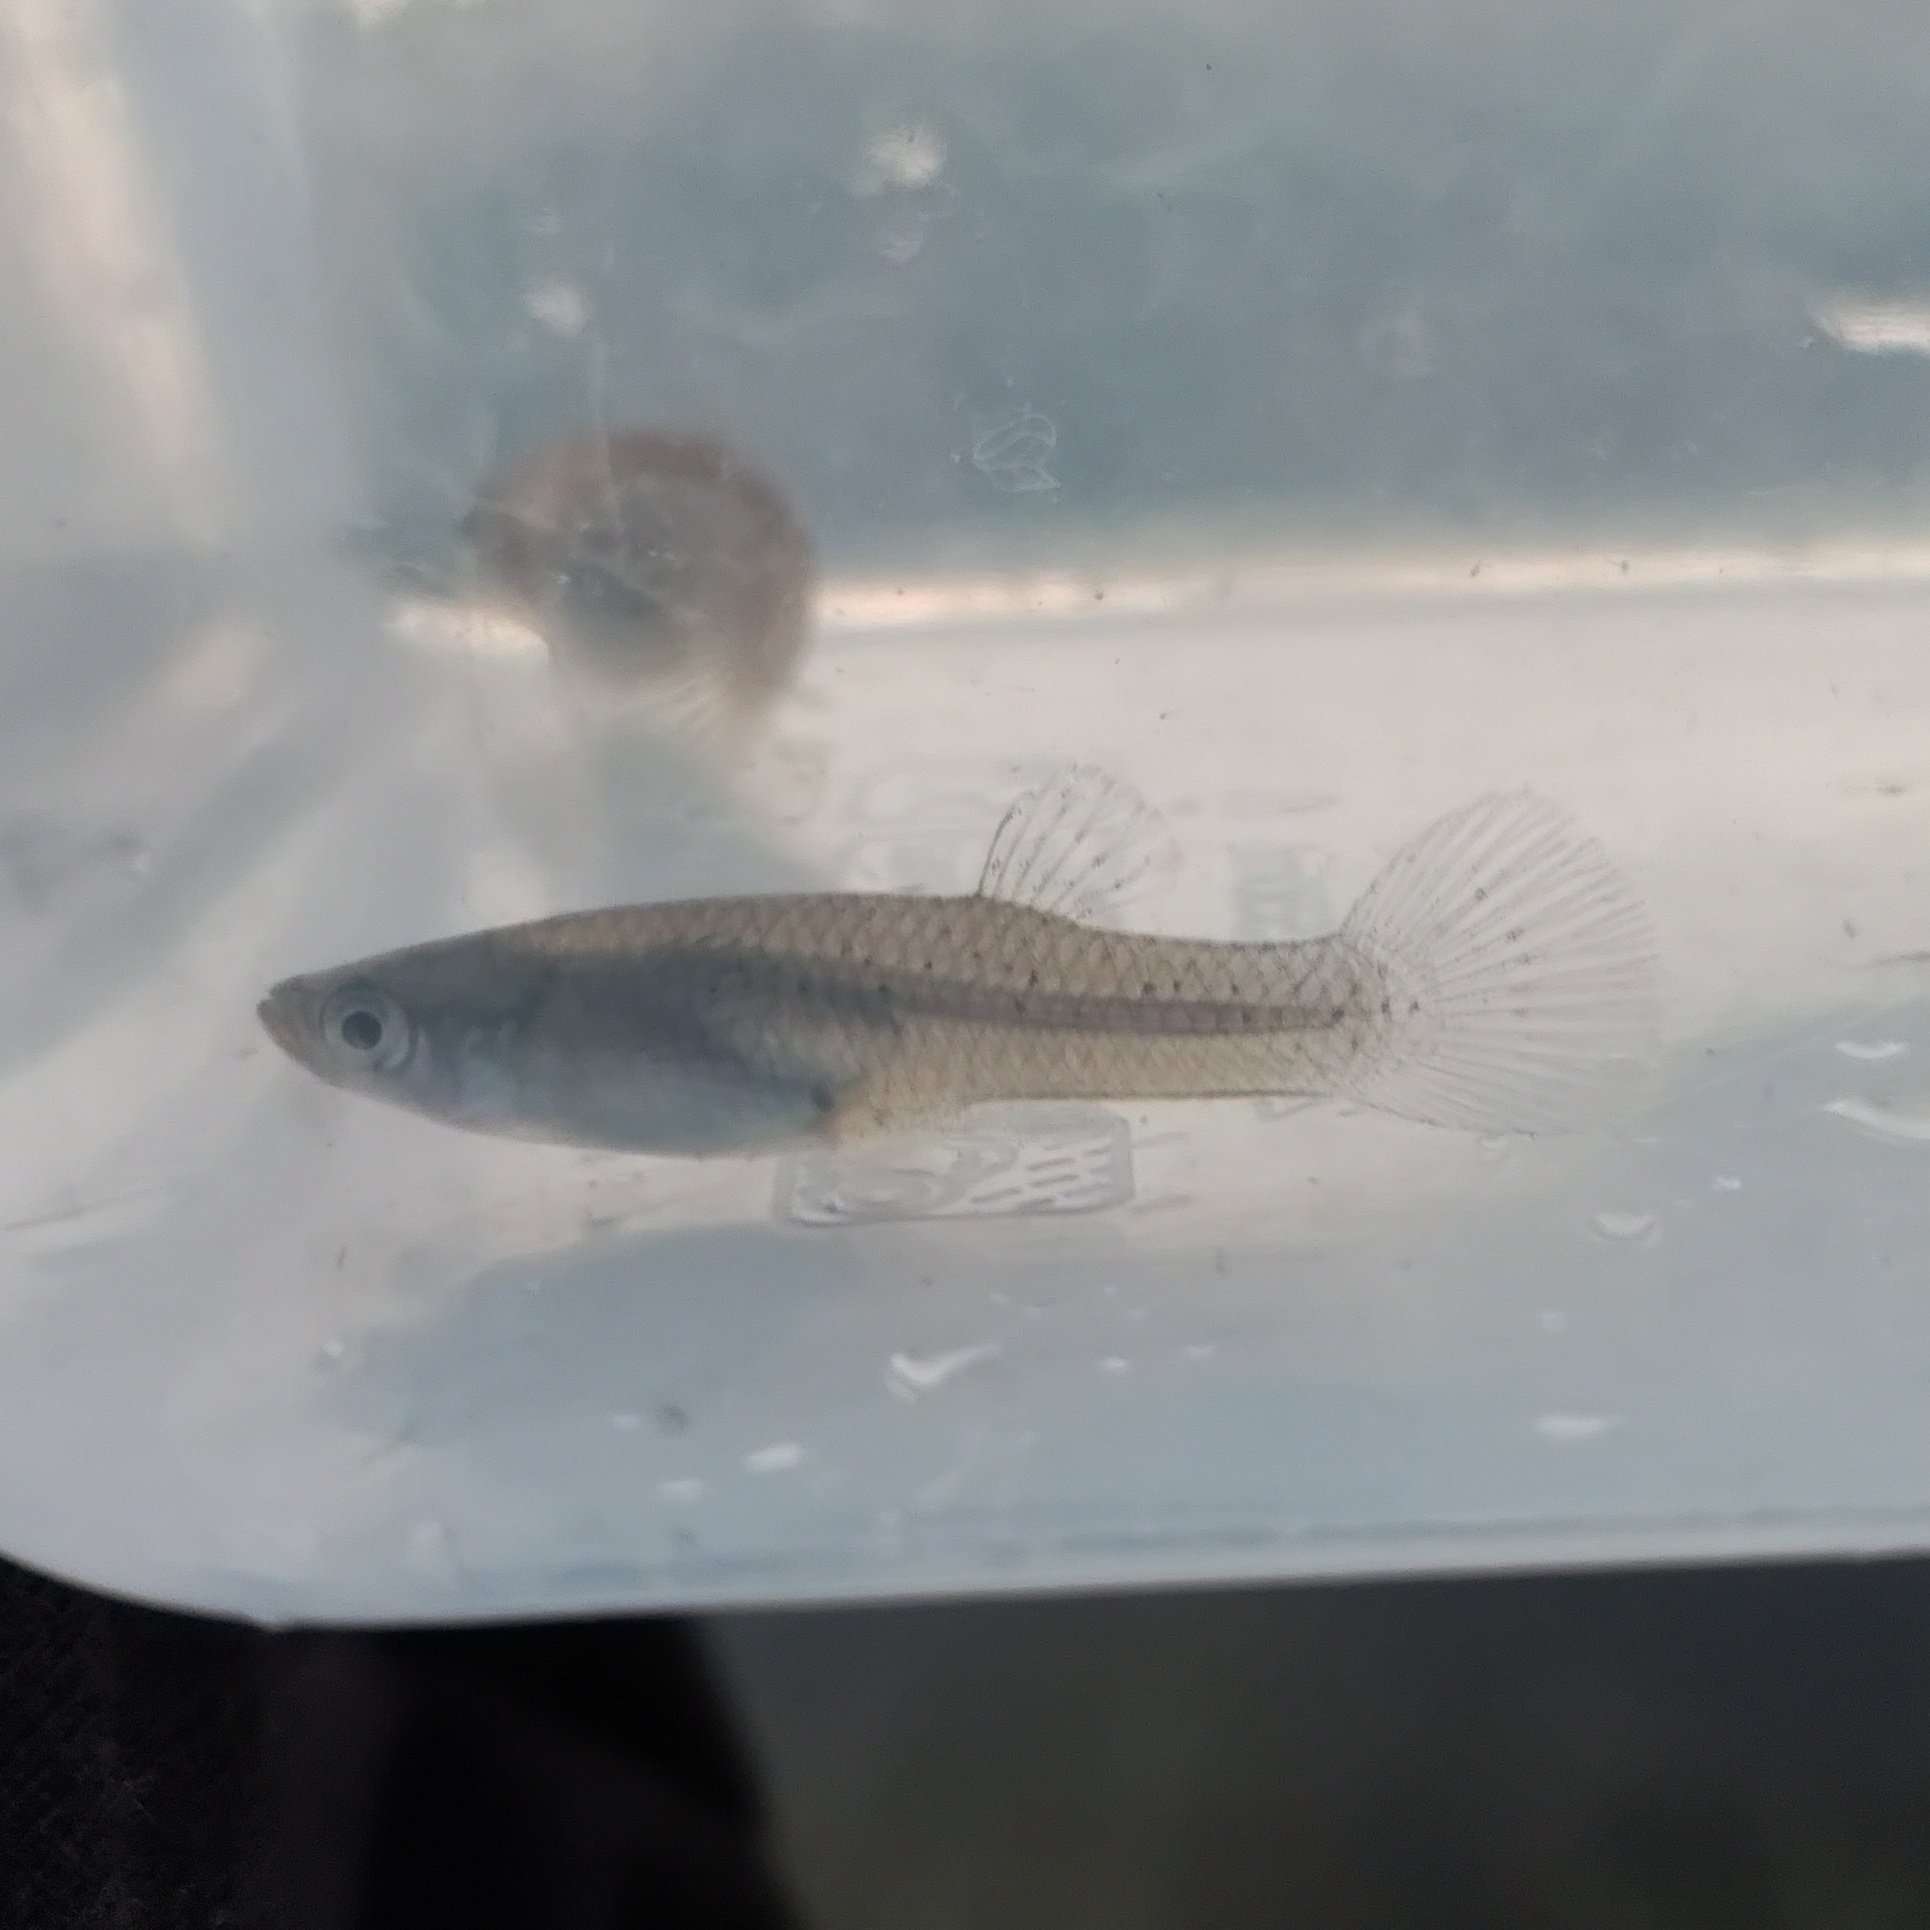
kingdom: Animalia
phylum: Chordata
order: Cyprinodontiformes
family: Poeciliidae
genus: Gambusia
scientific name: Gambusia affinis
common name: Mosquitofish
